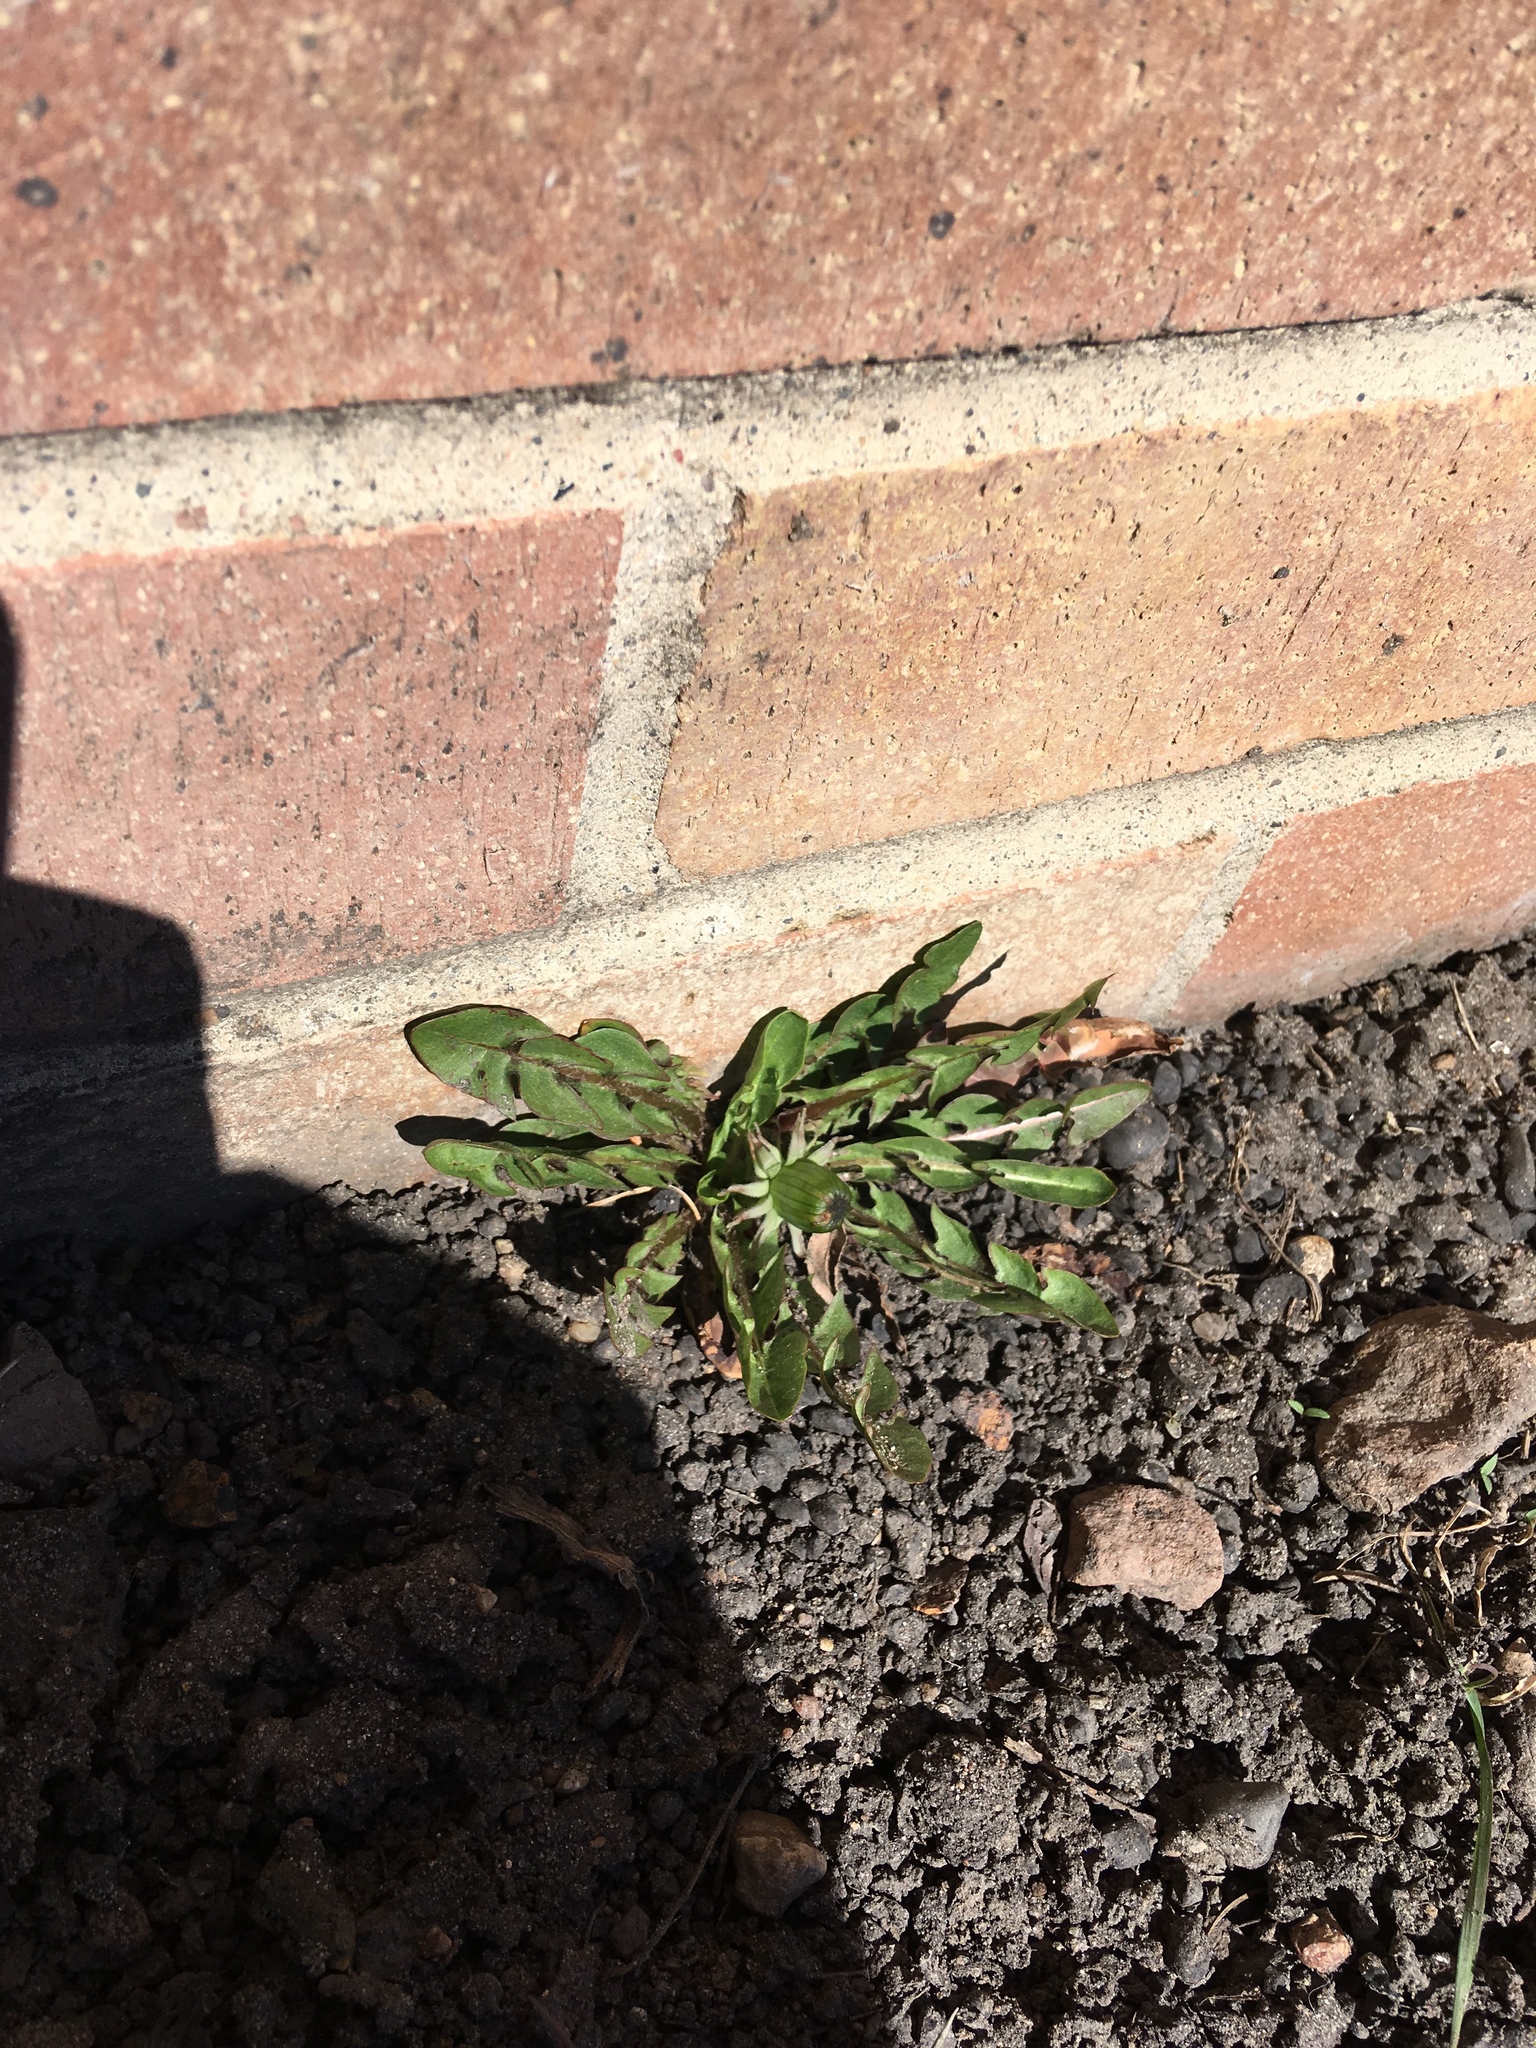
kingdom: Plantae
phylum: Tracheophyta
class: Magnoliopsida
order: Asterales
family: Asteraceae
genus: Taraxacum
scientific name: Taraxacum officinale
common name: Common dandelion
